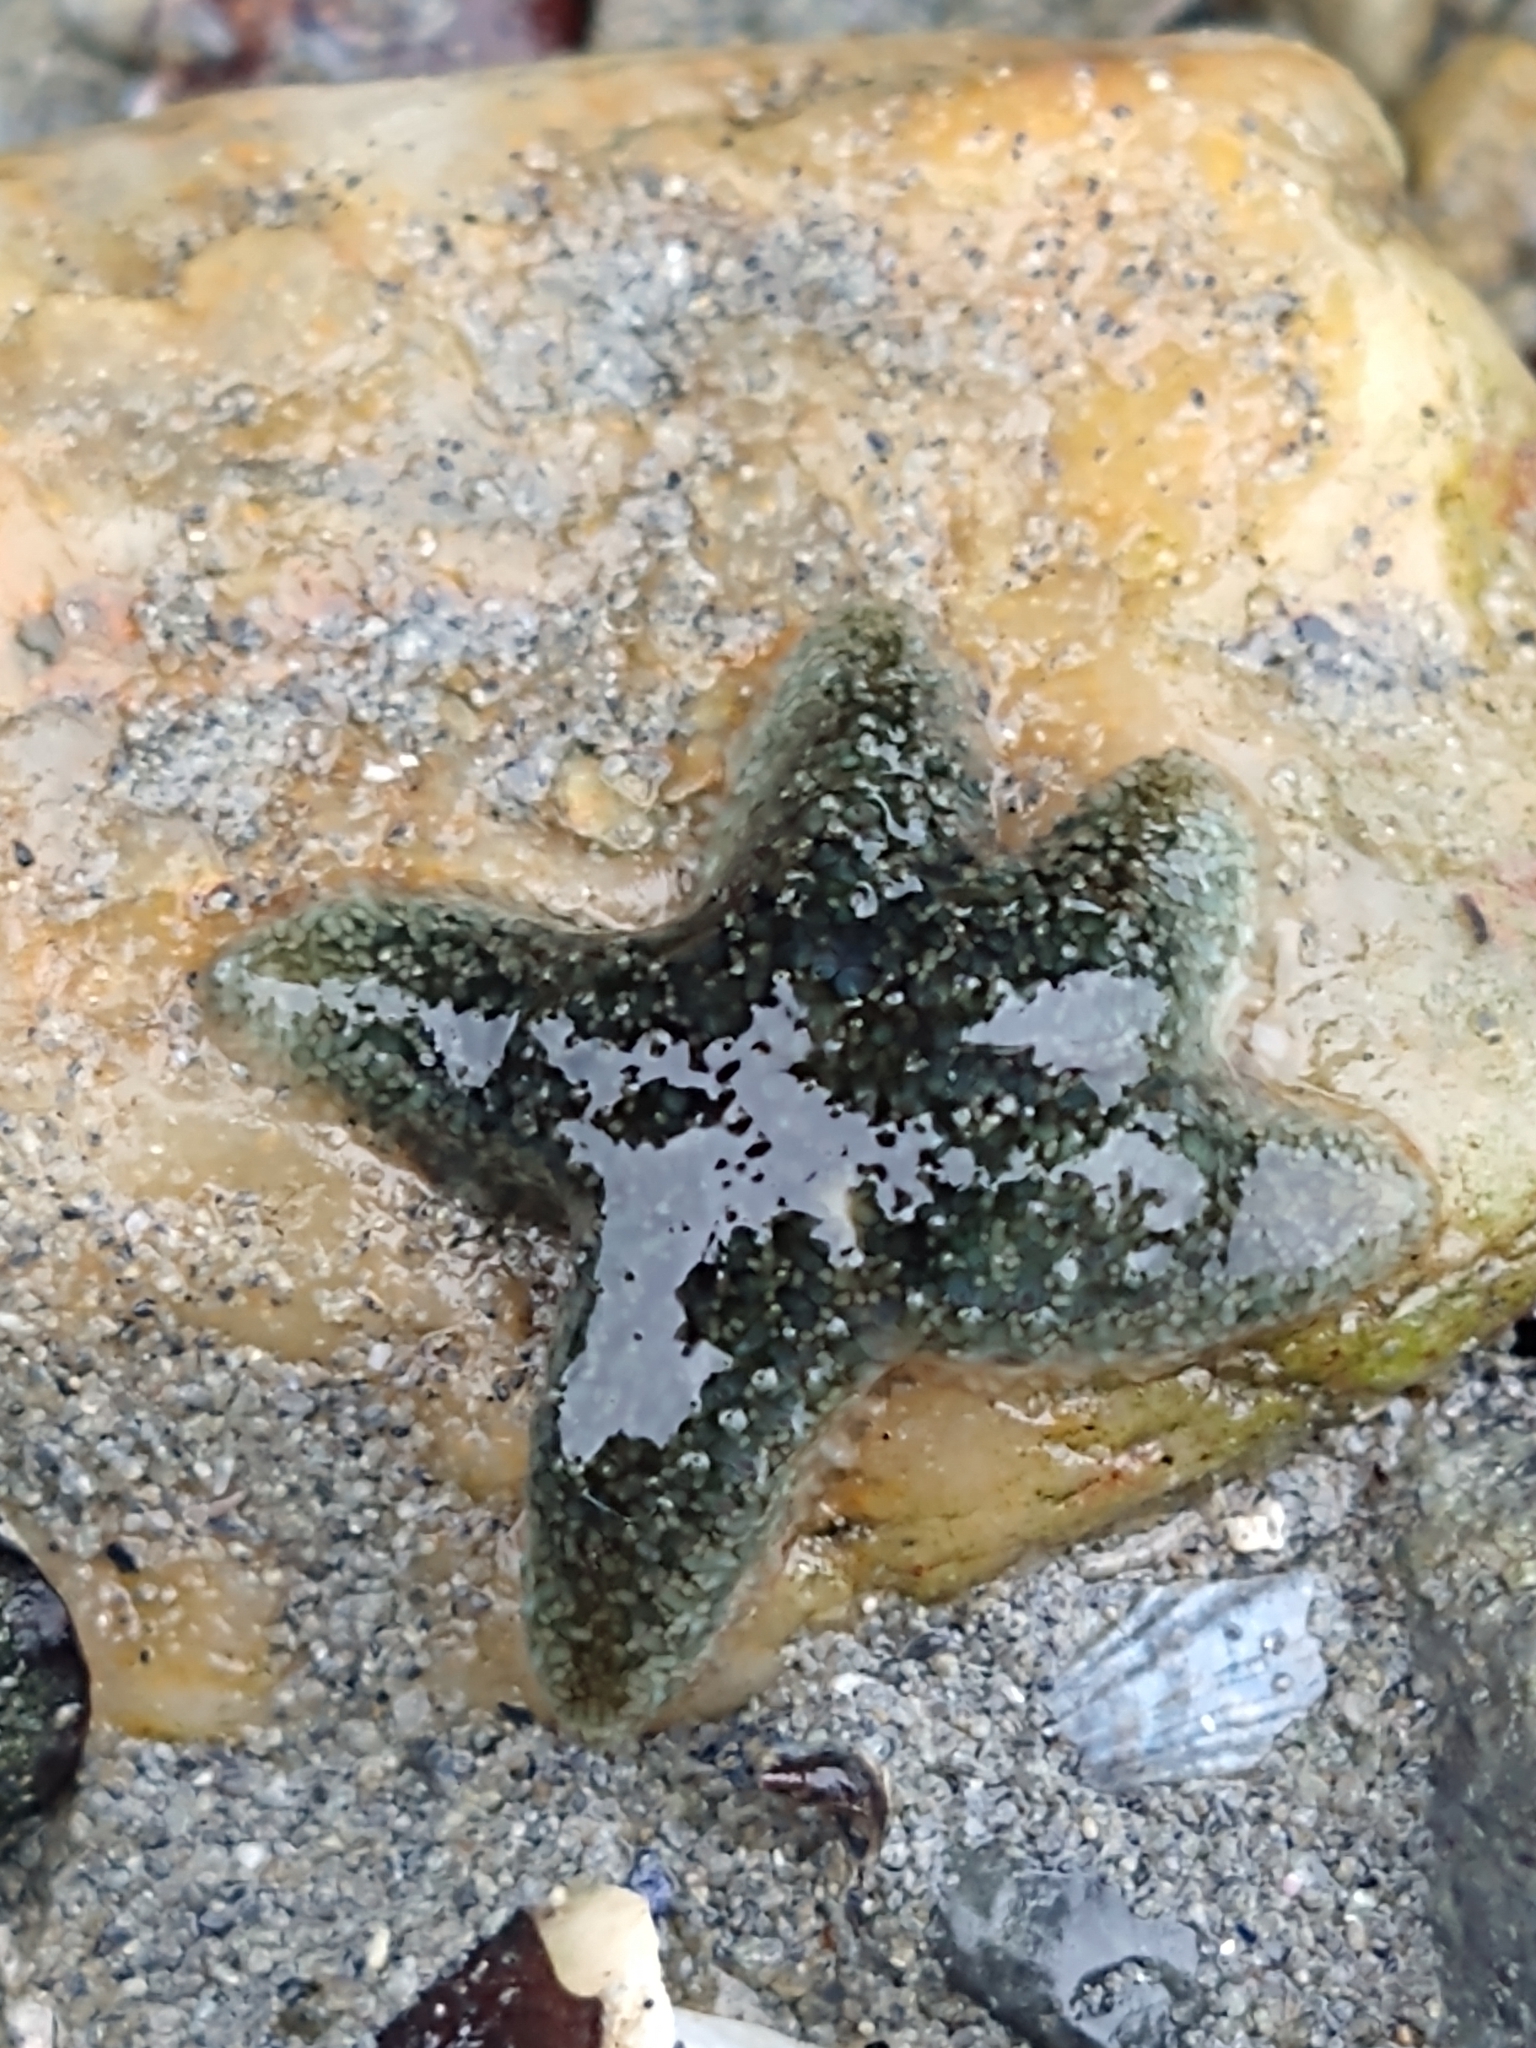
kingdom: Animalia
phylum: Echinodermata
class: Asteroidea
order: Forcipulatida
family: Asteriidae
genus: Anasterias
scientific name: Anasterias antarctica
